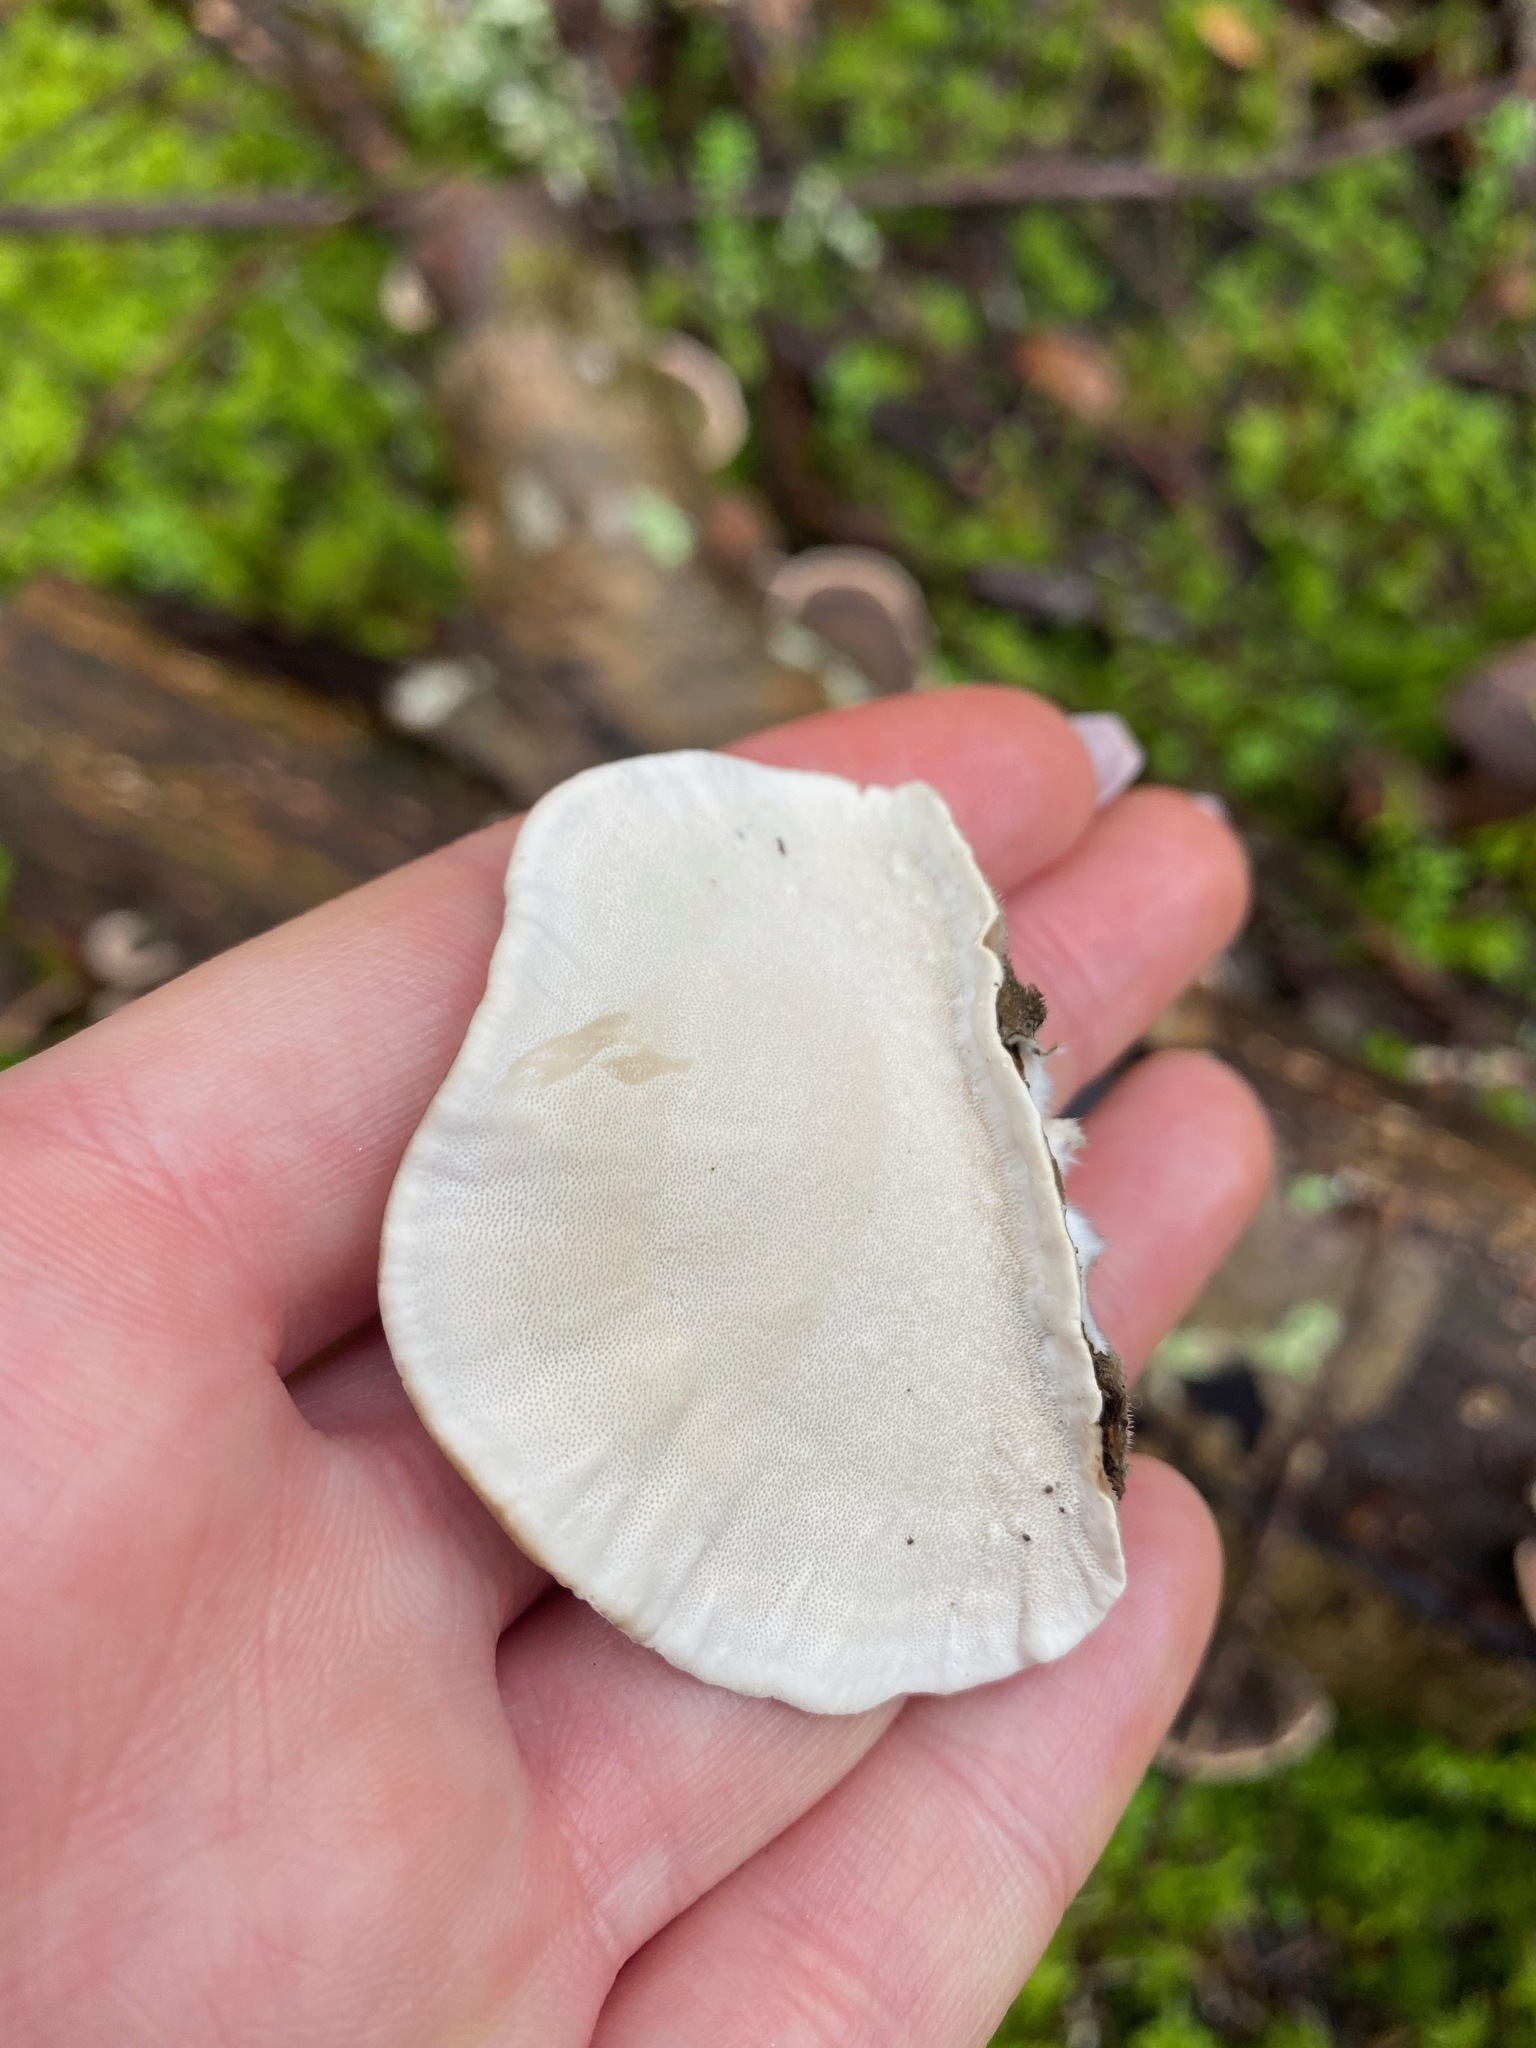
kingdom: Fungi
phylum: Basidiomycota
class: Agaricomycetes
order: Polyporales
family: Polyporaceae
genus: Trametes
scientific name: Trametes versicolor
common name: Turkeytail
